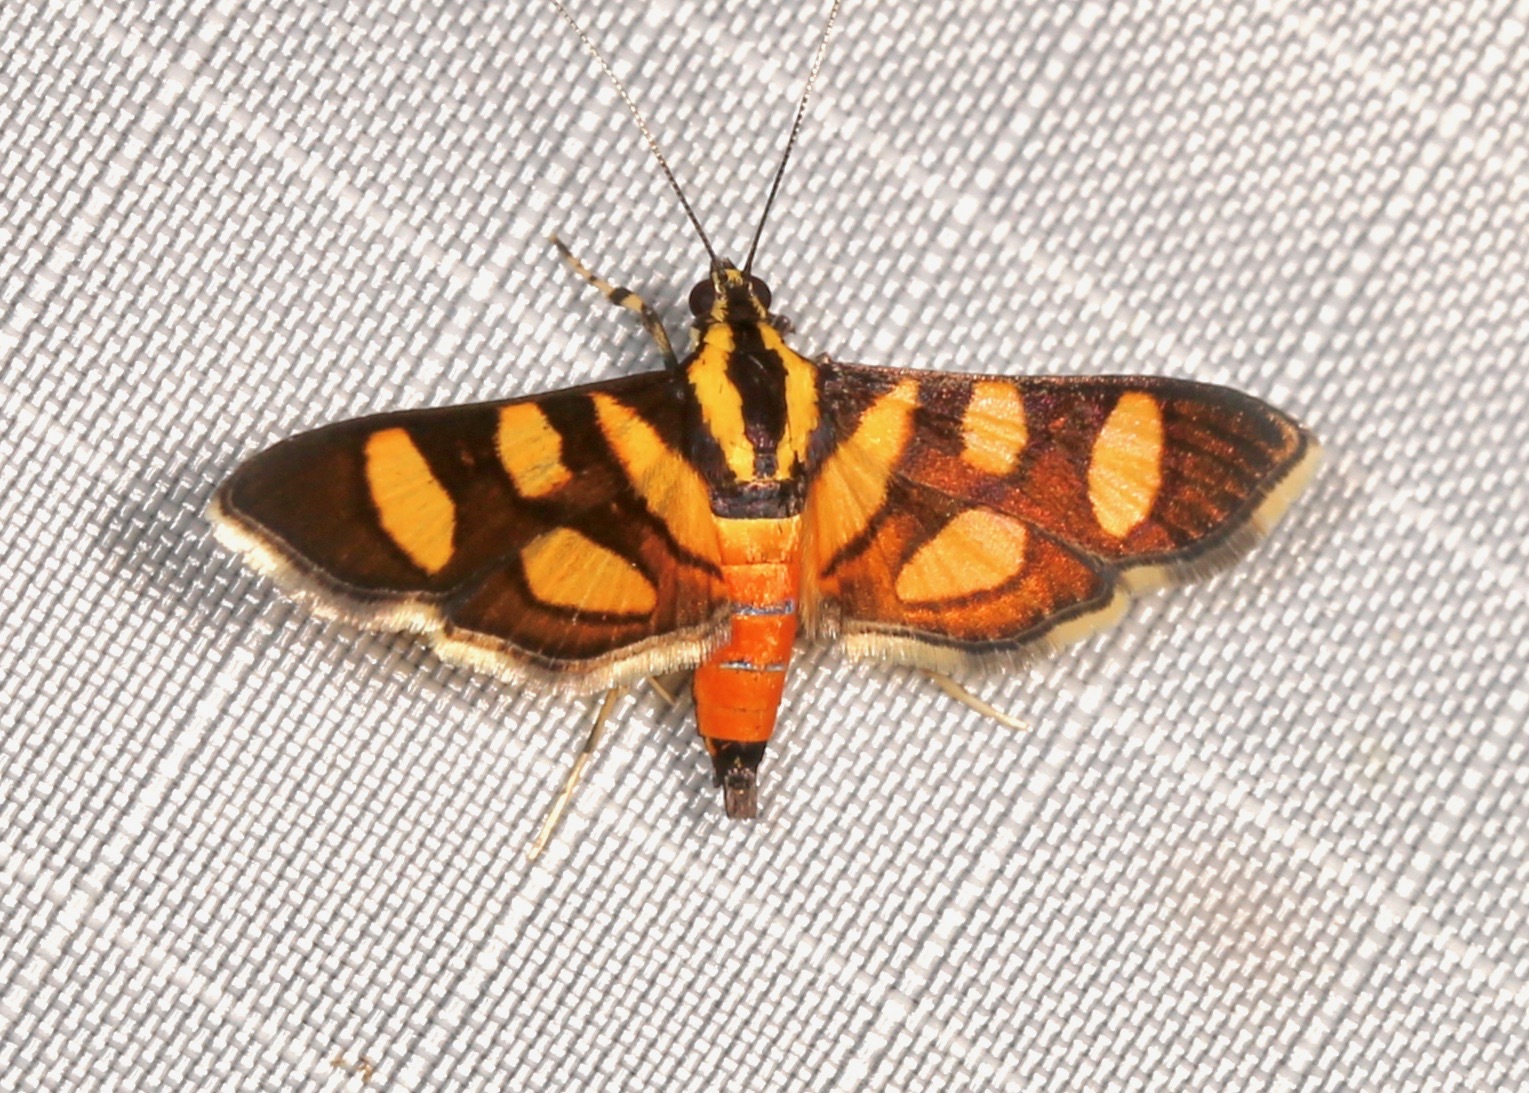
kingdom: Animalia
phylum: Arthropoda
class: Insecta
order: Lepidoptera
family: Crambidae
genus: Syngamia
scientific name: Syngamia florella
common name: Orange-spotted flower moth
